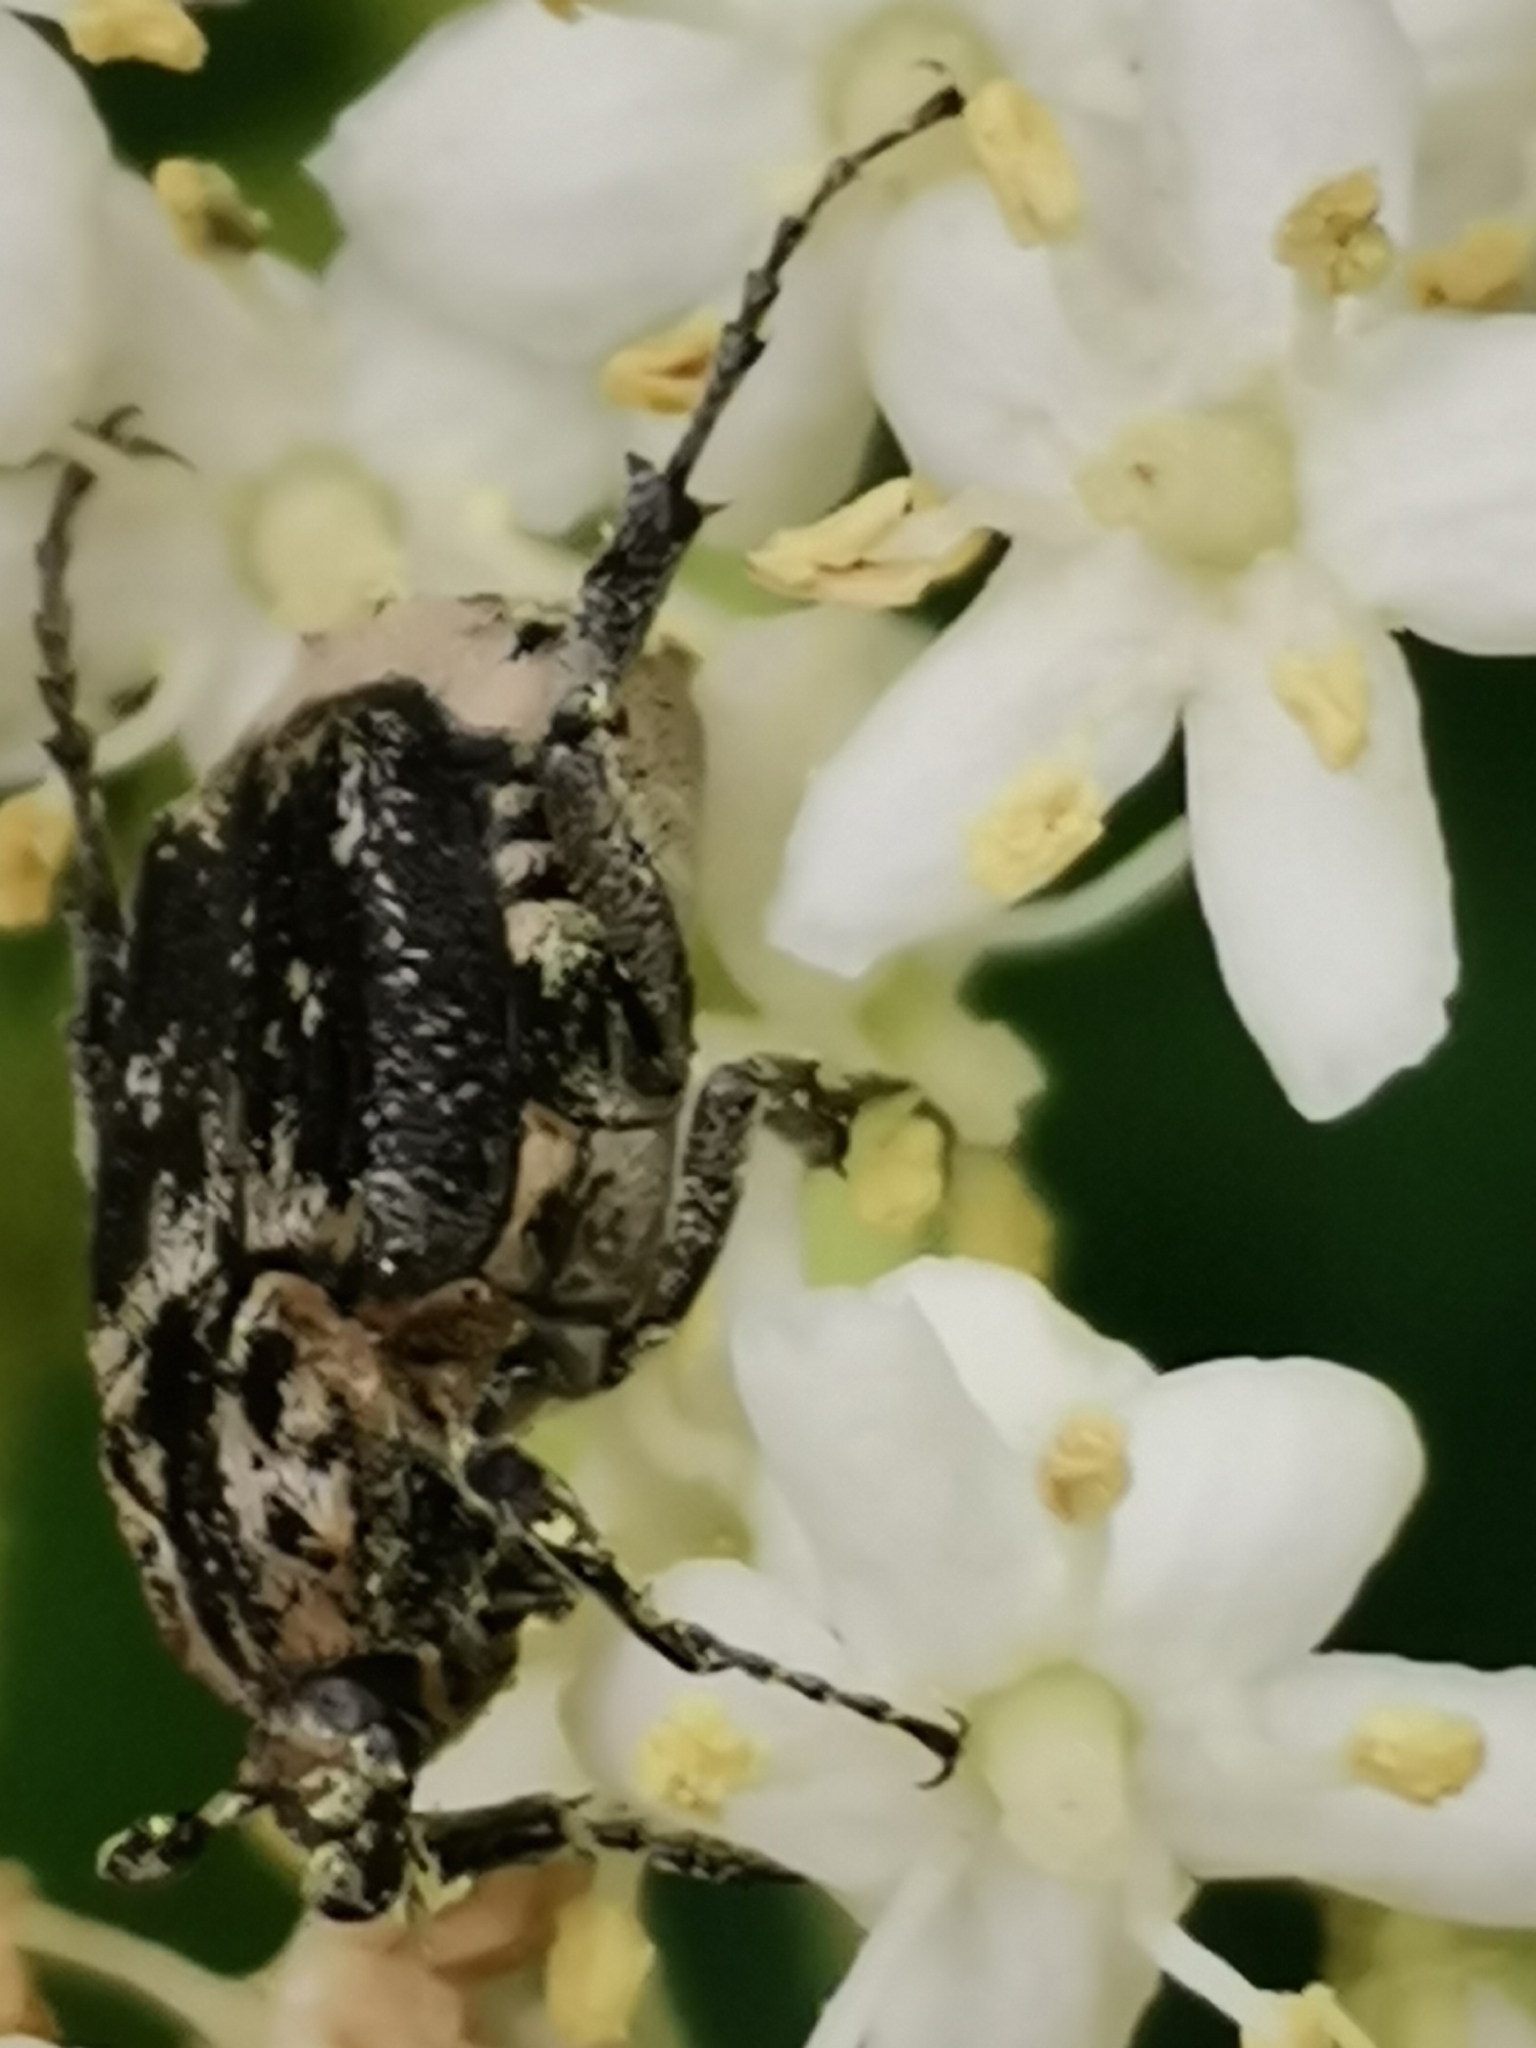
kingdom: Animalia
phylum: Arthropoda
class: Insecta
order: Coleoptera
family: Scarabaeidae
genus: Valgus
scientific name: Valgus hemipterus
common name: Bug flower chafer
